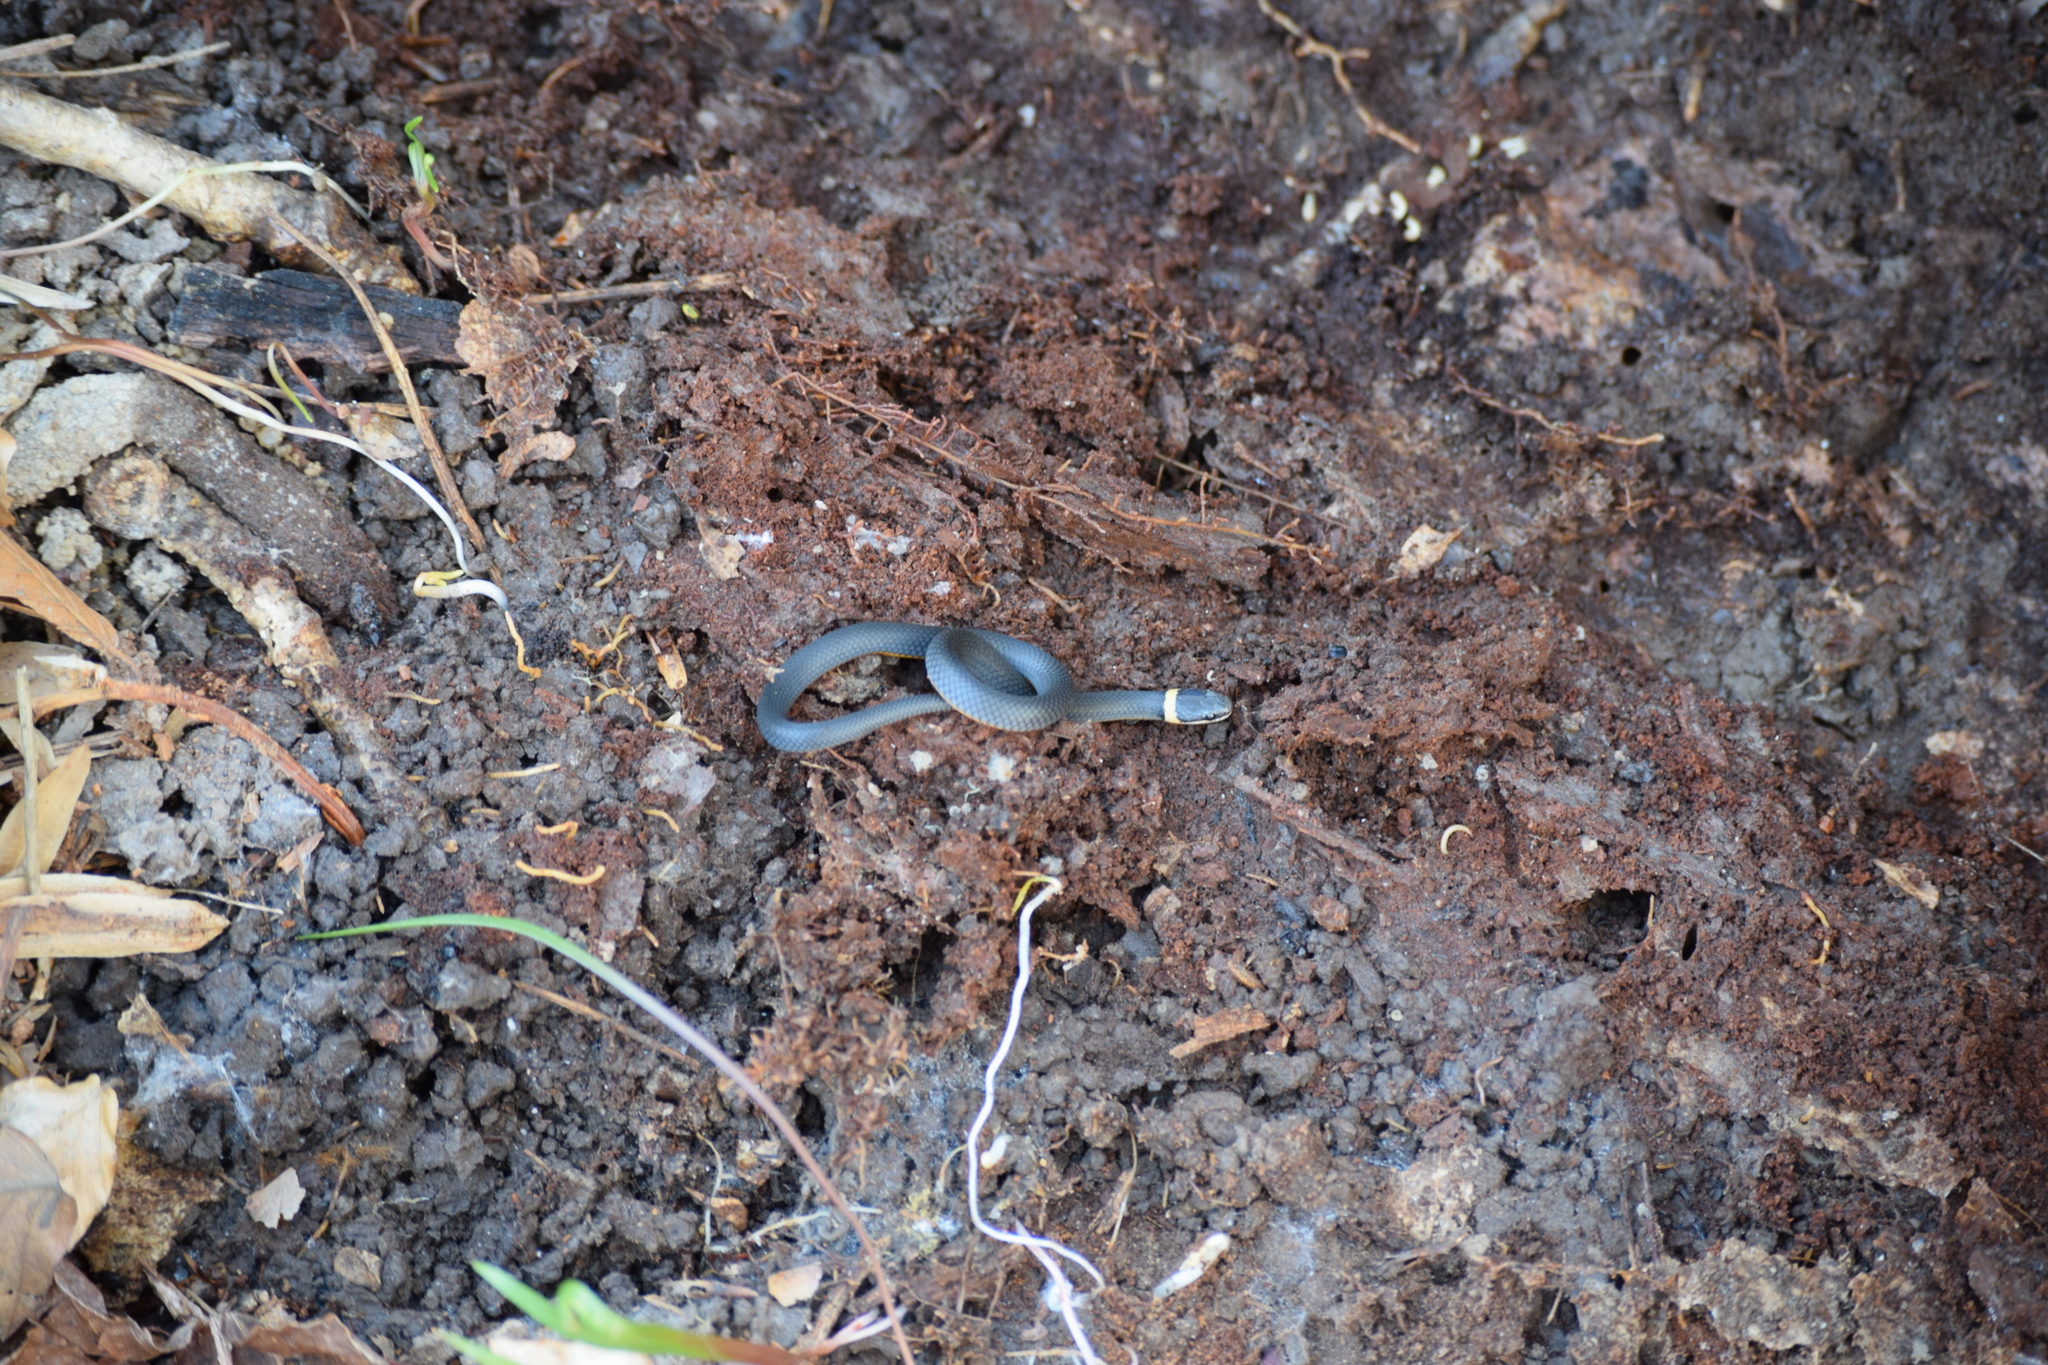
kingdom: Animalia
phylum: Chordata
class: Squamata
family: Colubridae
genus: Diadophis
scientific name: Diadophis punctatus
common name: Ringneck snake
